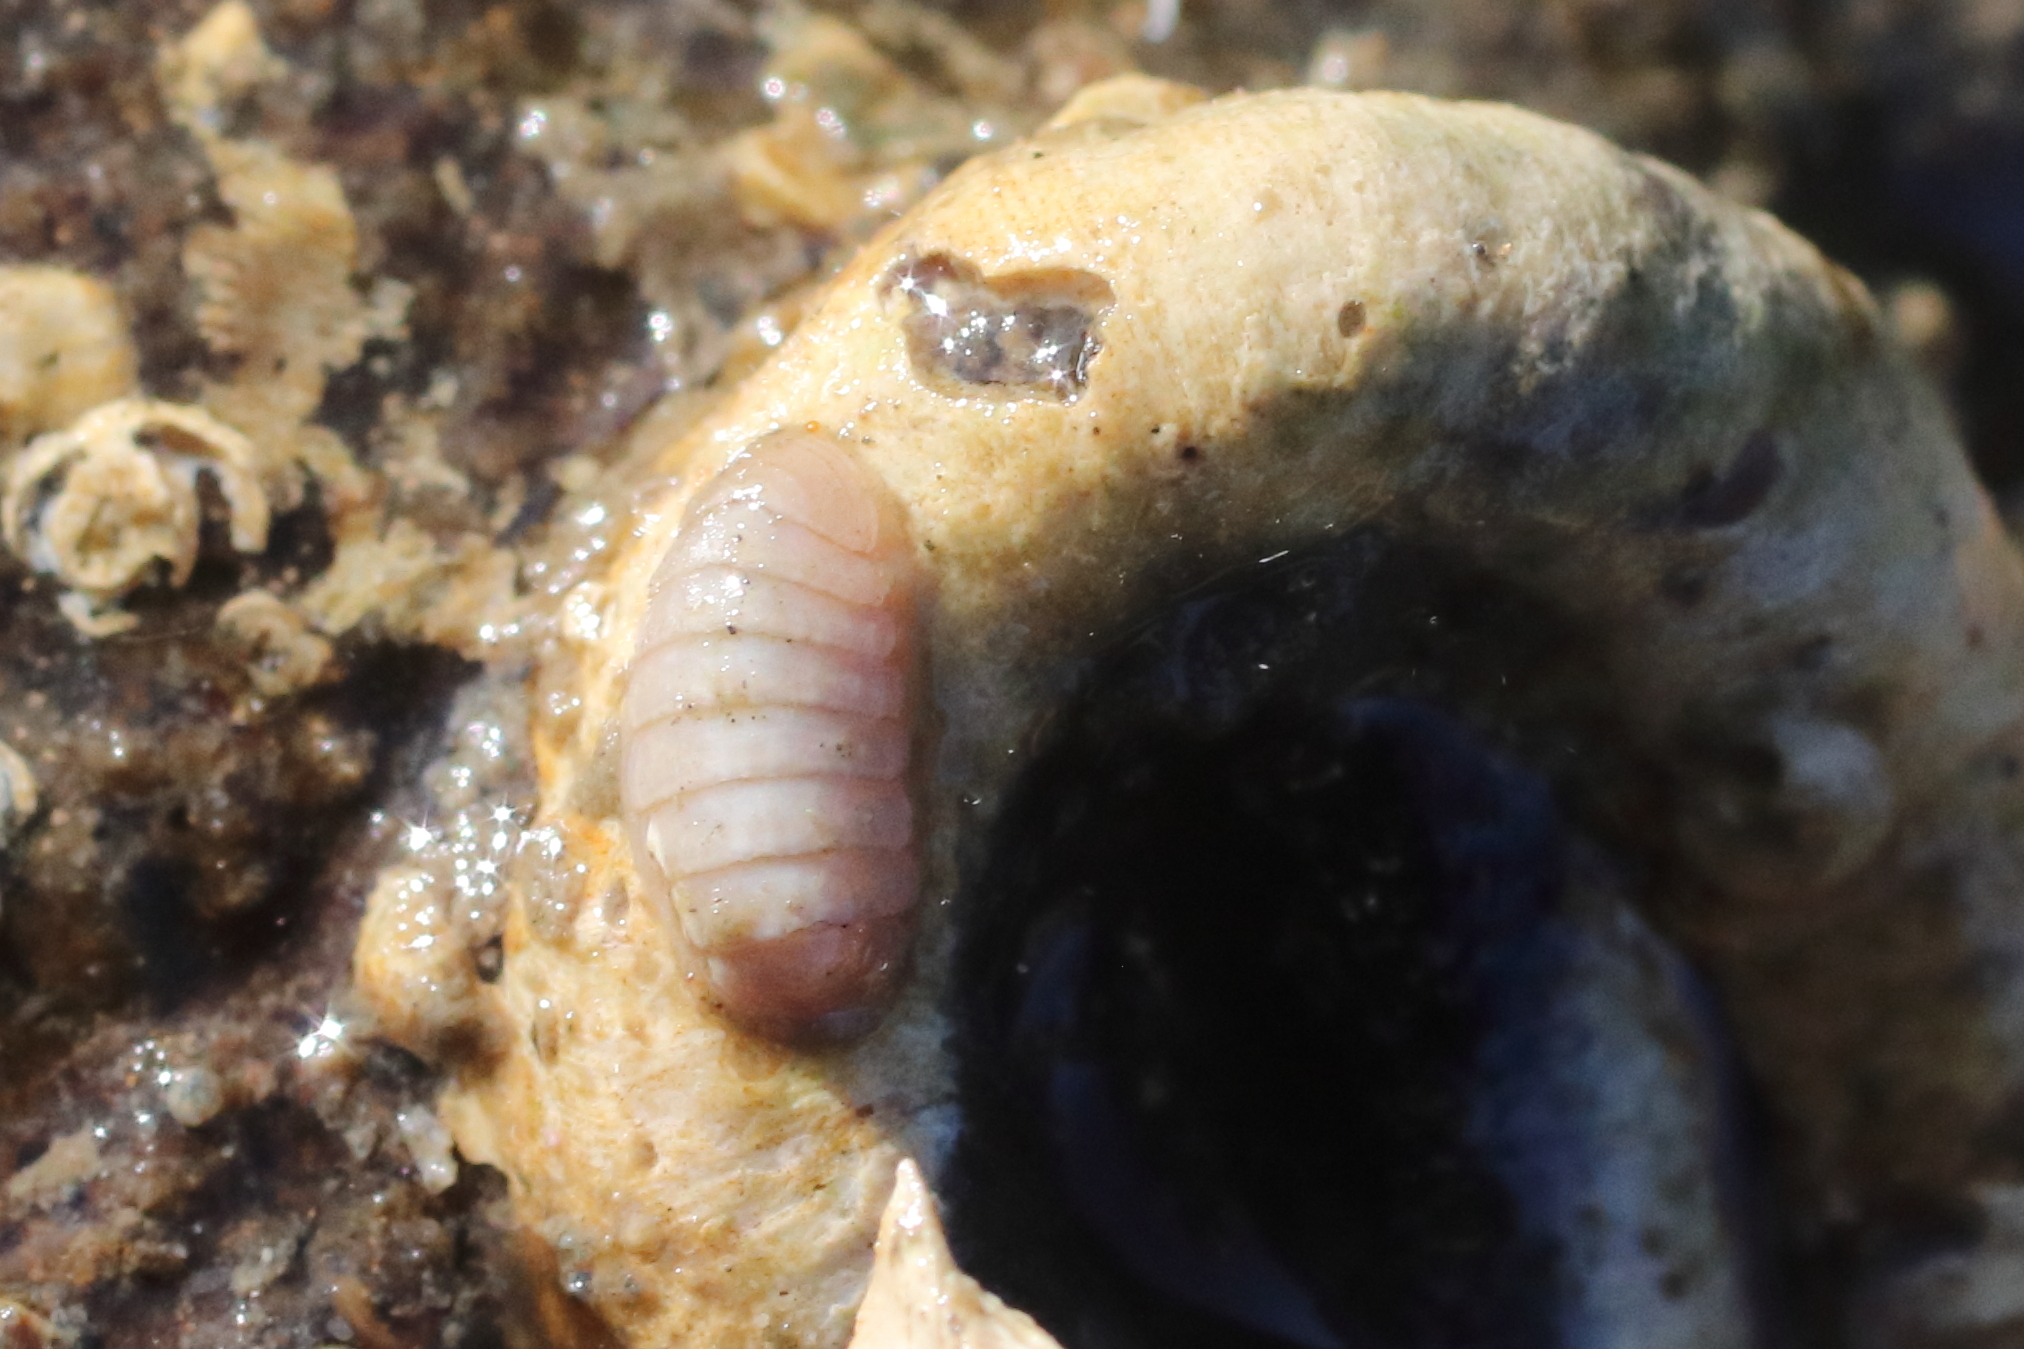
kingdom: Animalia
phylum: Mollusca
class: Polyplacophora
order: Lepidopleurida
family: Leptochitonidae
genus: Leptochiton
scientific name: Leptochiton cascadiensis
